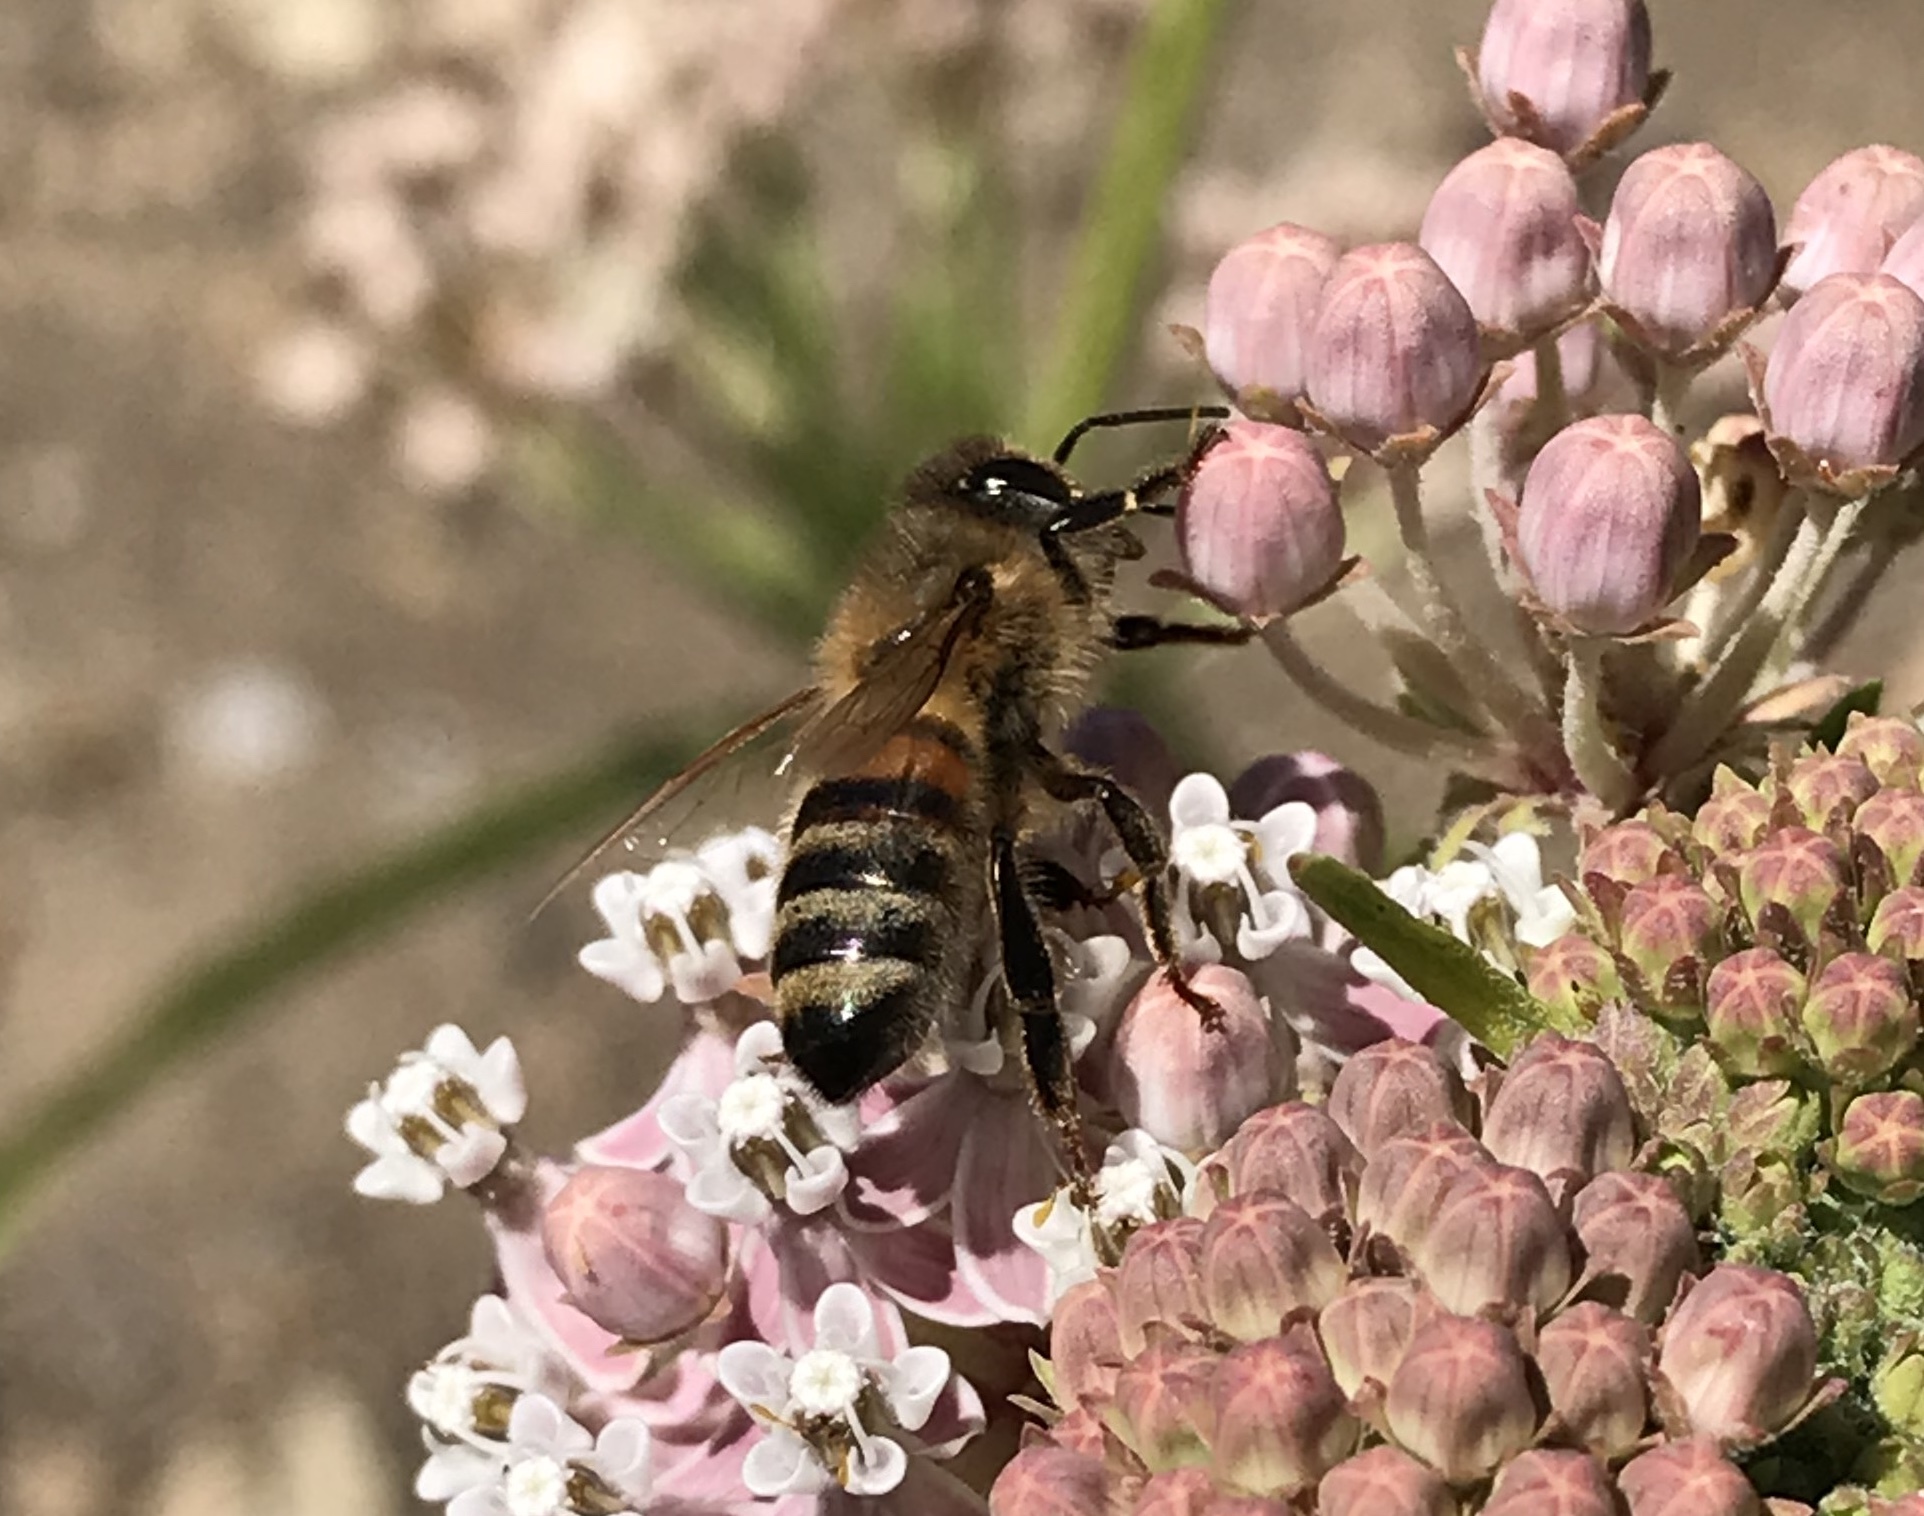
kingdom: Animalia
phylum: Arthropoda
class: Insecta
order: Hymenoptera
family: Apidae
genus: Apis
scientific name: Apis mellifera
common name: Honey bee
